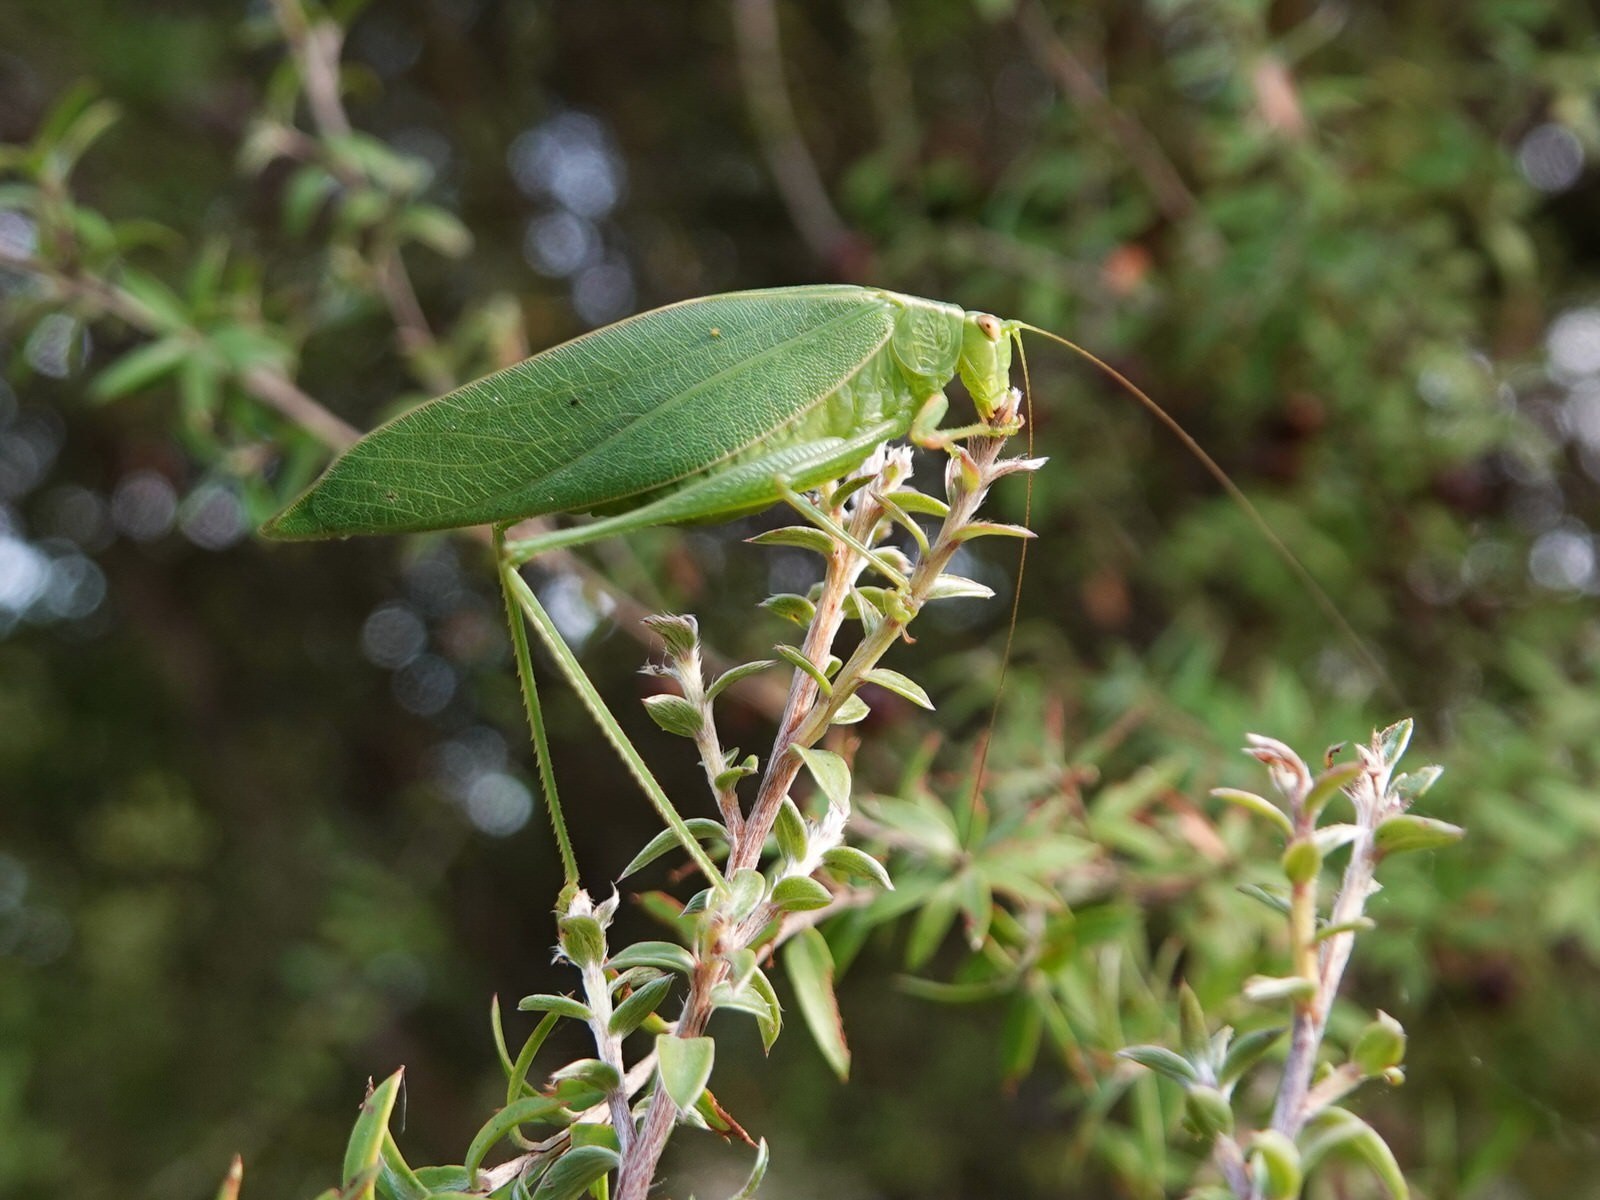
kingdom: Animalia
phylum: Arthropoda
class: Insecta
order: Orthoptera
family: Tettigoniidae
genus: Caedicia
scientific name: Caedicia simplex
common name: Common garden katydid
